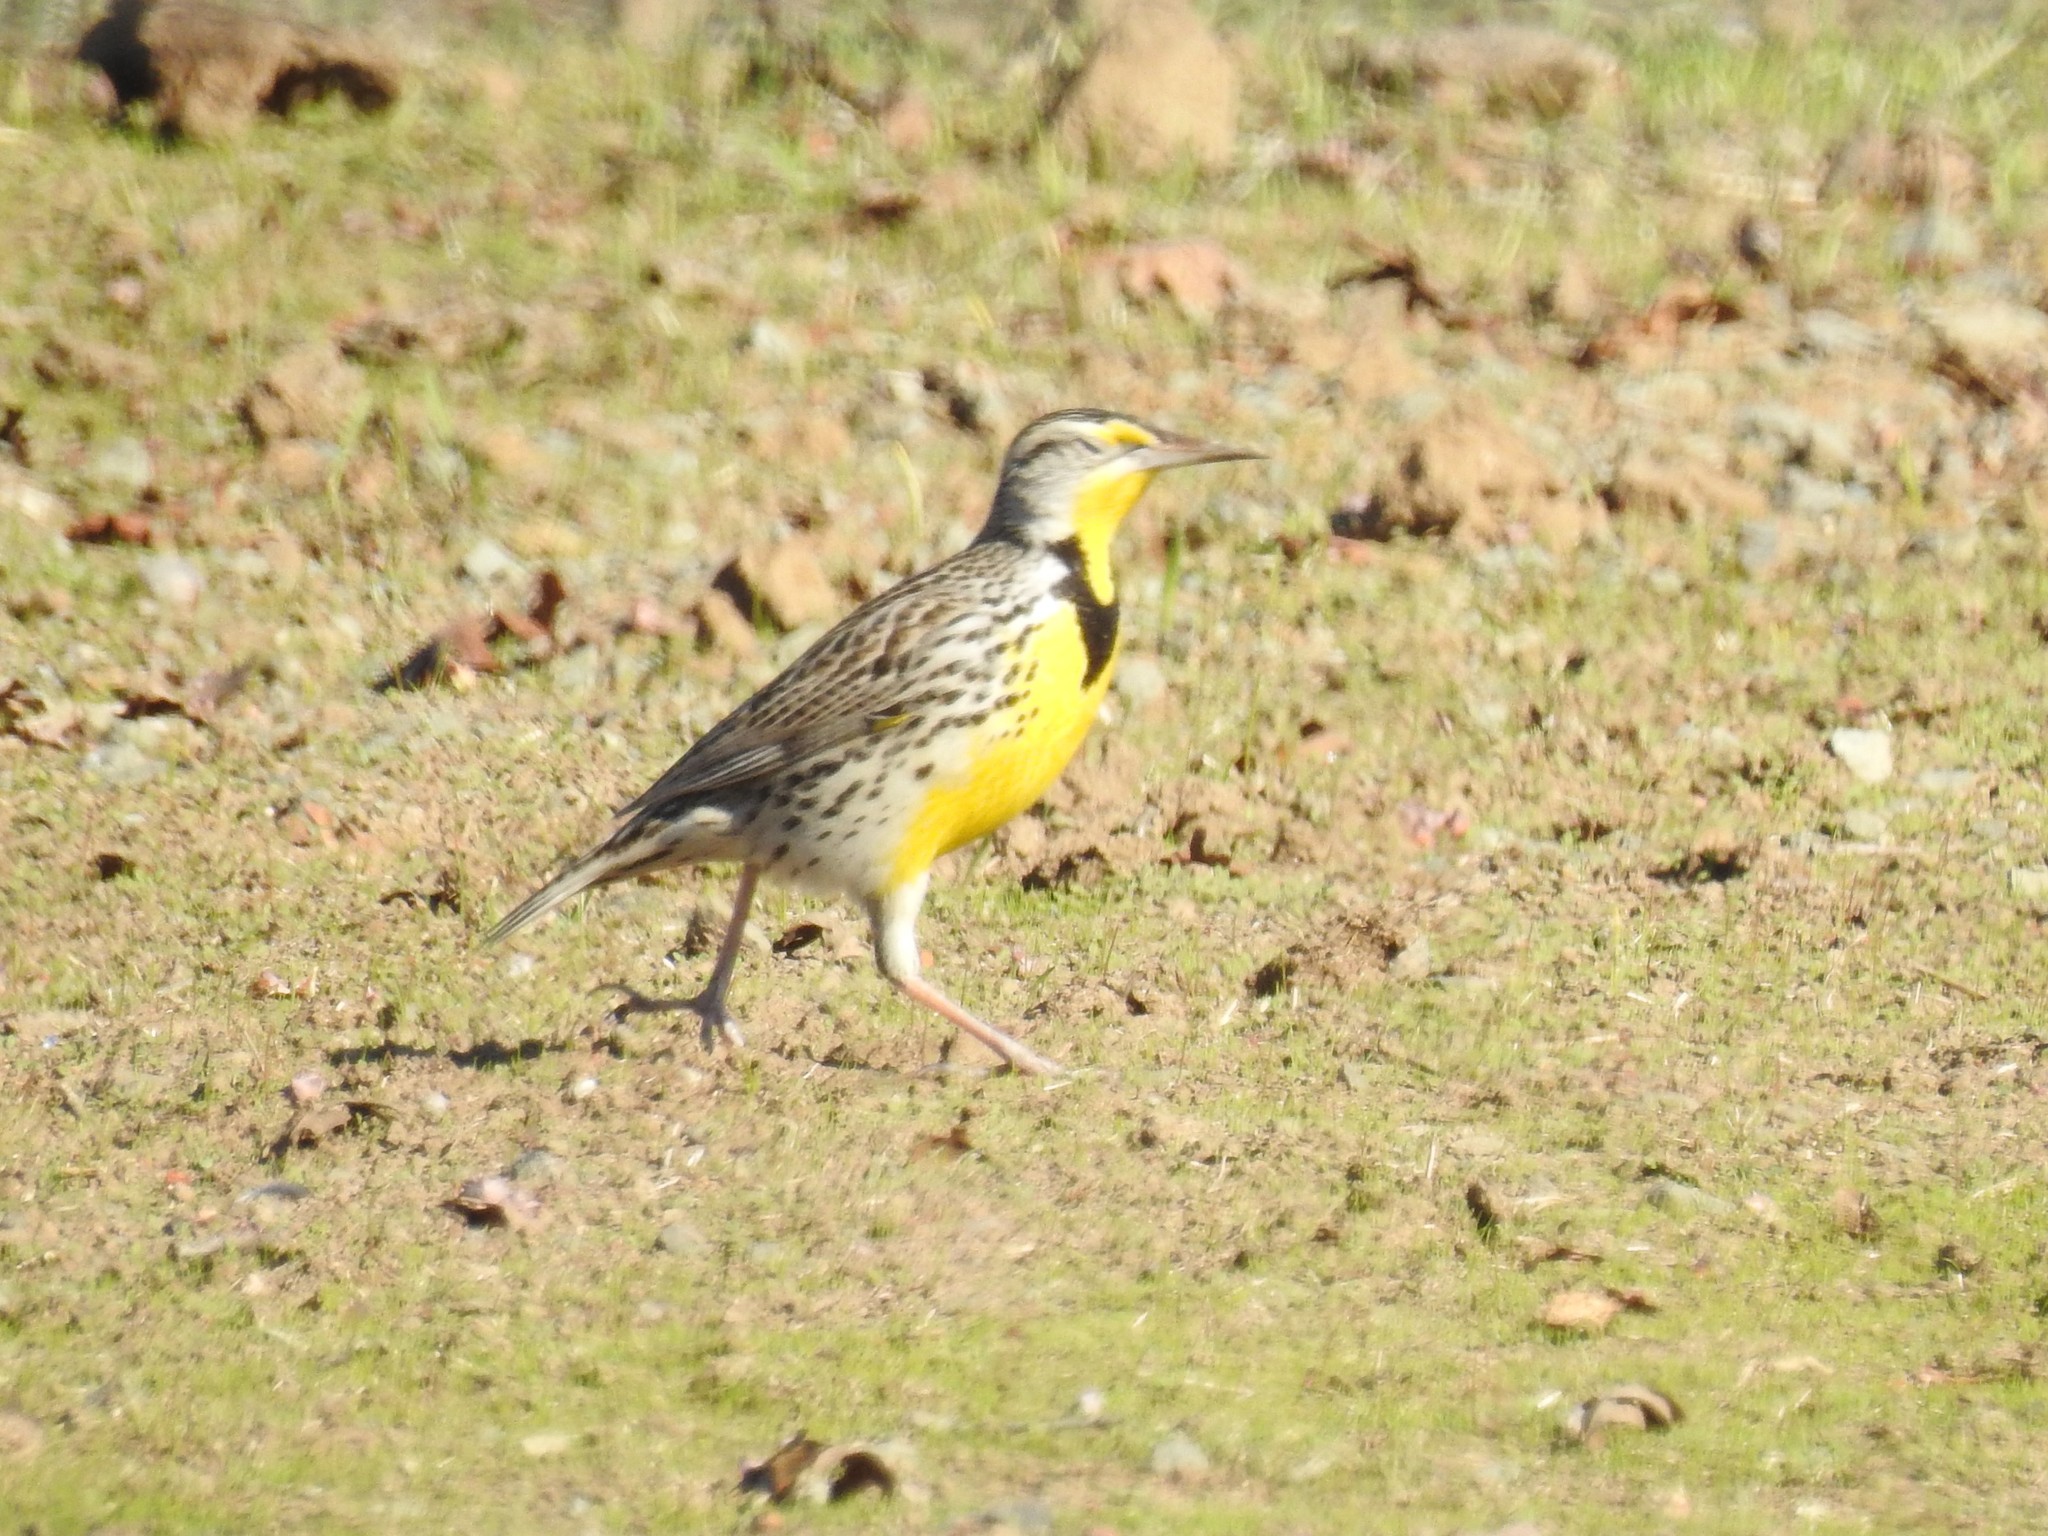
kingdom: Animalia
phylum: Chordata
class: Aves
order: Passeriformes
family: Icteridae
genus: Sturnella
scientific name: Sturnella neglecta
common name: Western meadowlark
